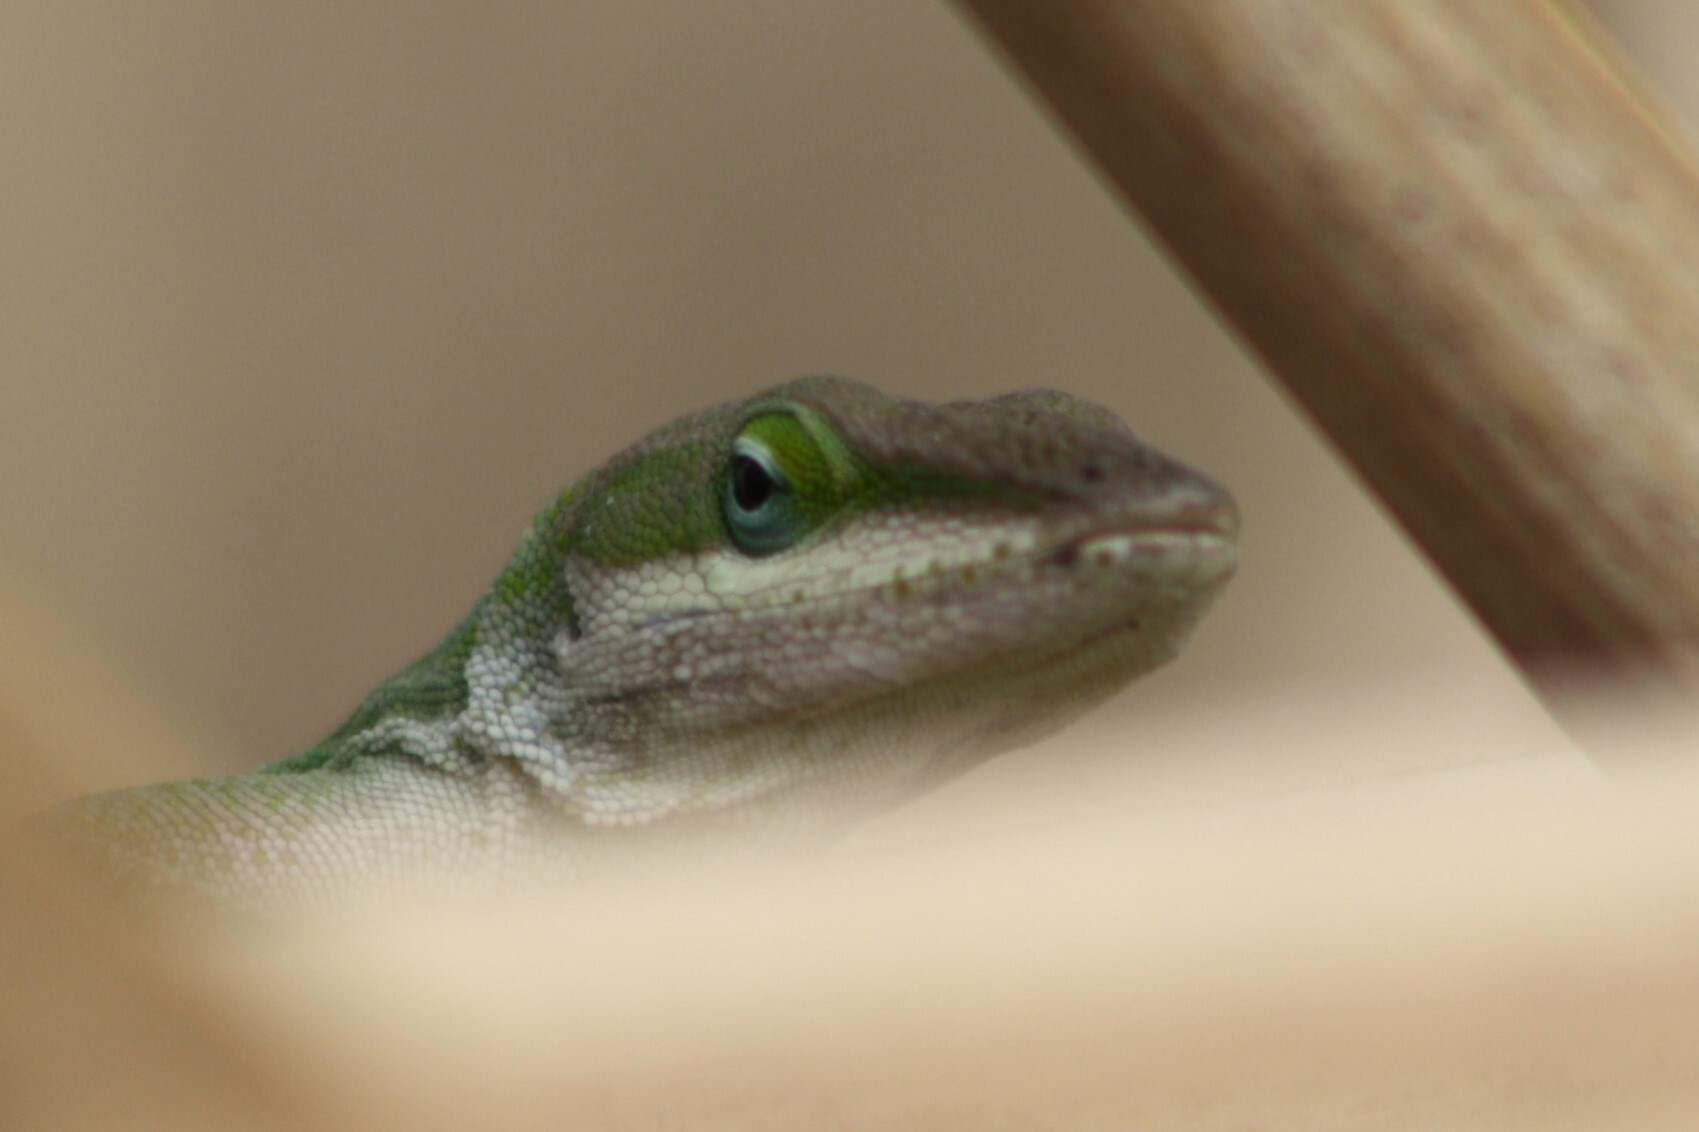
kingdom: Animalia
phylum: Chordata
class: Squamata
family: Dactyloidae
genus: Anolis
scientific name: Anolis carolinensis
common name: Green anole
